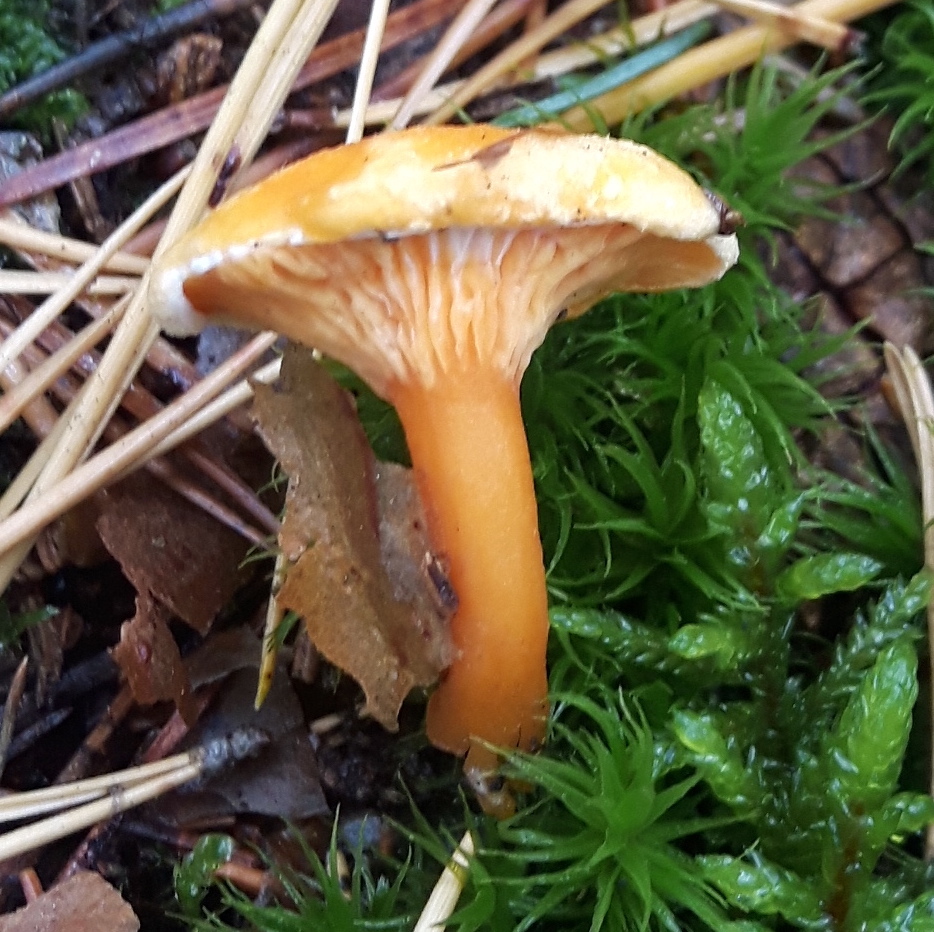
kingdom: Fungi
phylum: Basidiomycota
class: Agaricomycetes
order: Boletales
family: Hygrophoropsidaceae
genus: Hygrophoropsis
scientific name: Hygrophoropsis aurantiaca
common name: False chanterelle
